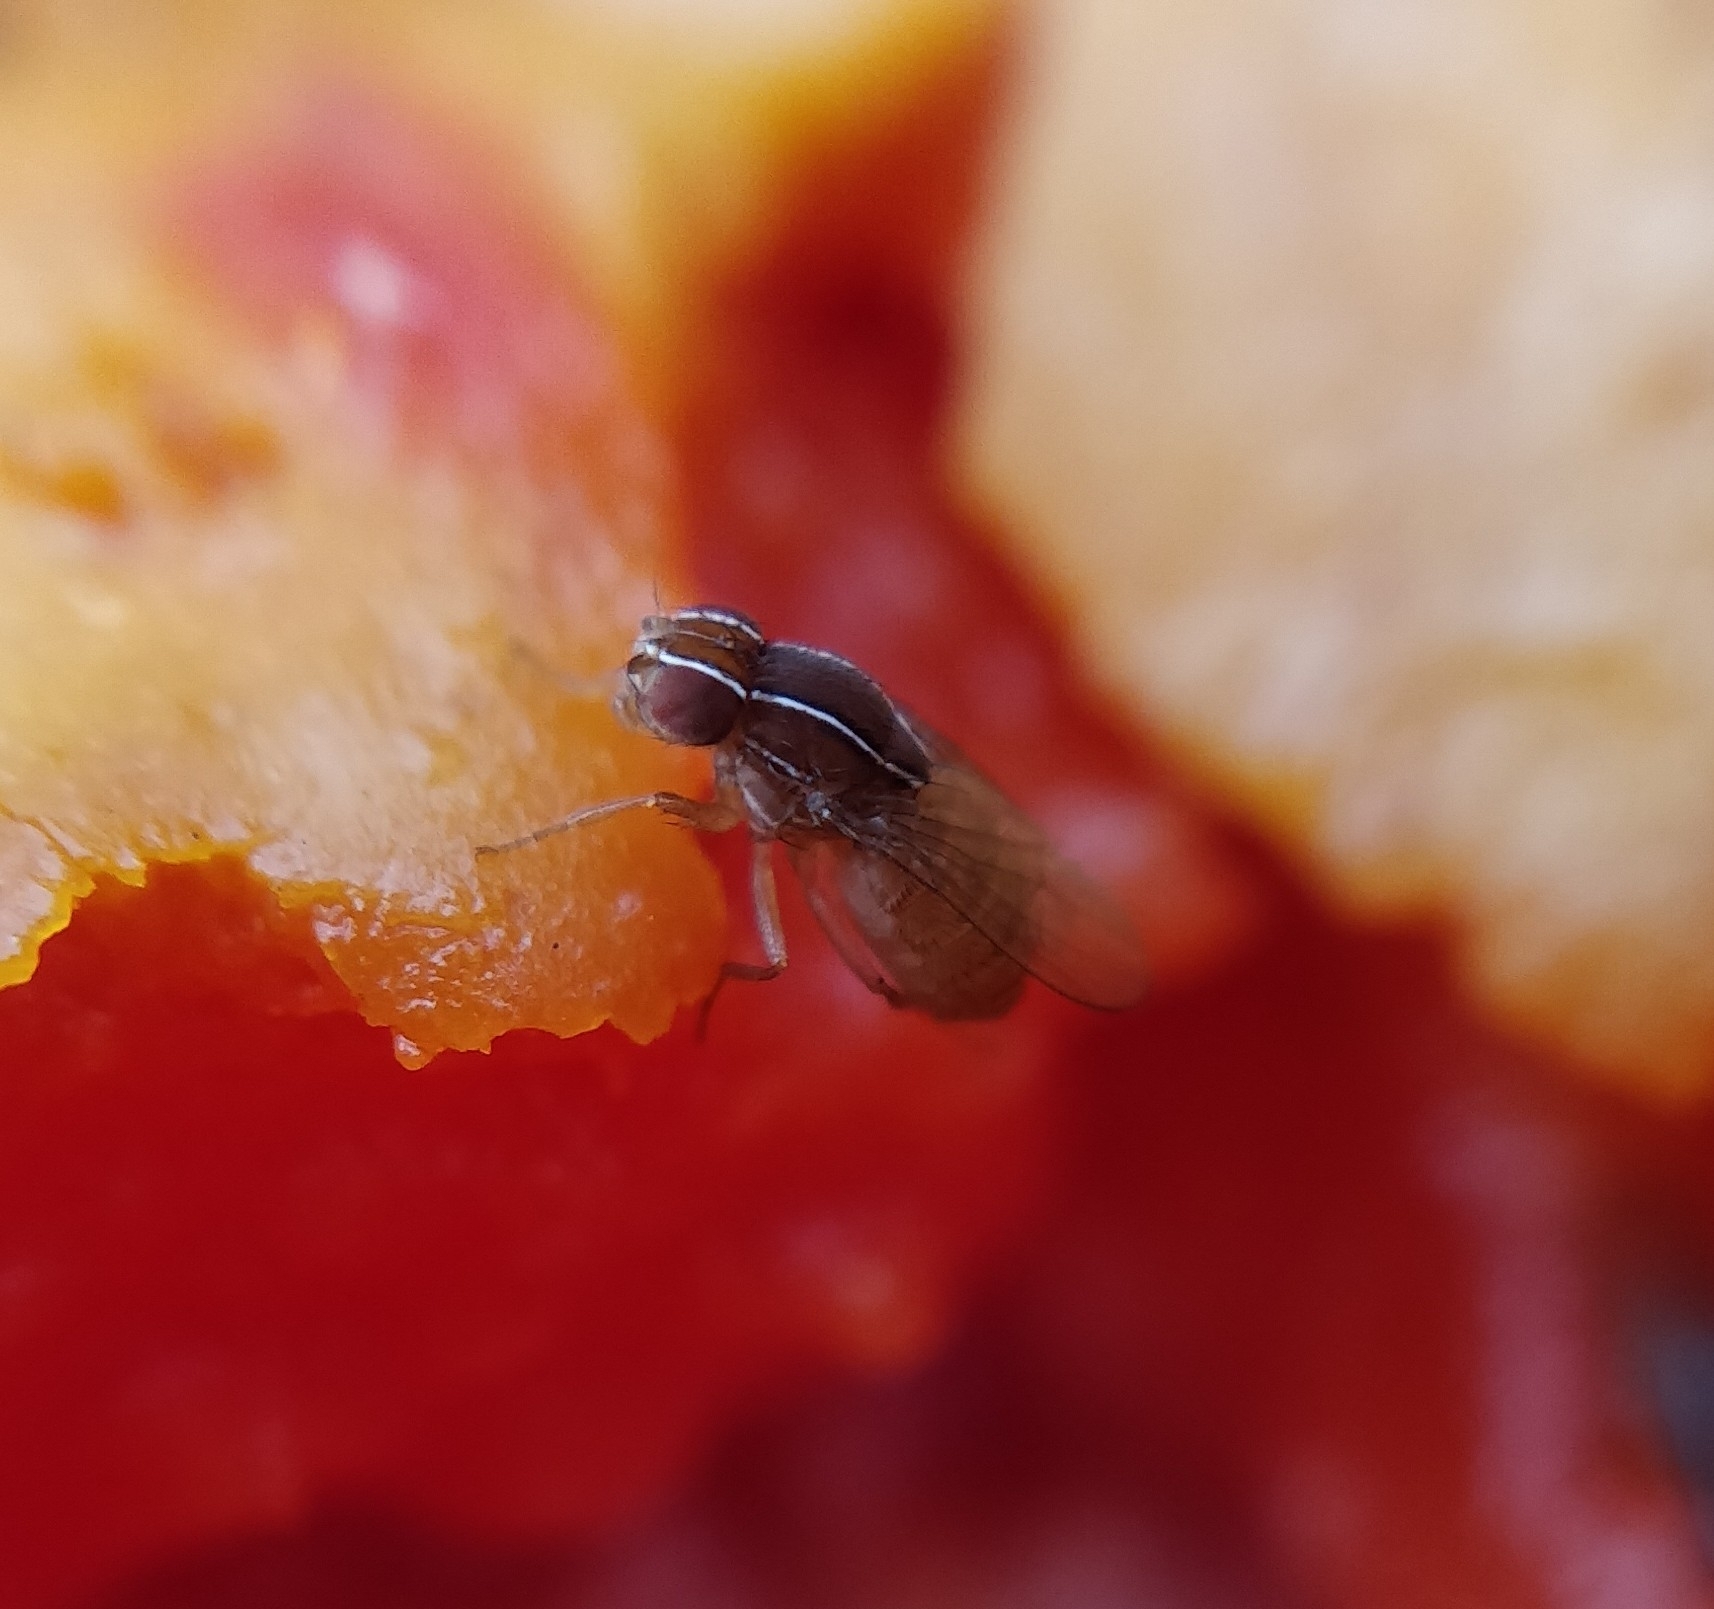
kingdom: Animalia
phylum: Arthropoda
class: Insecta
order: Diptera
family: Drosophilidae
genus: Zaprionus
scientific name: Zaprionus tuberculatus
